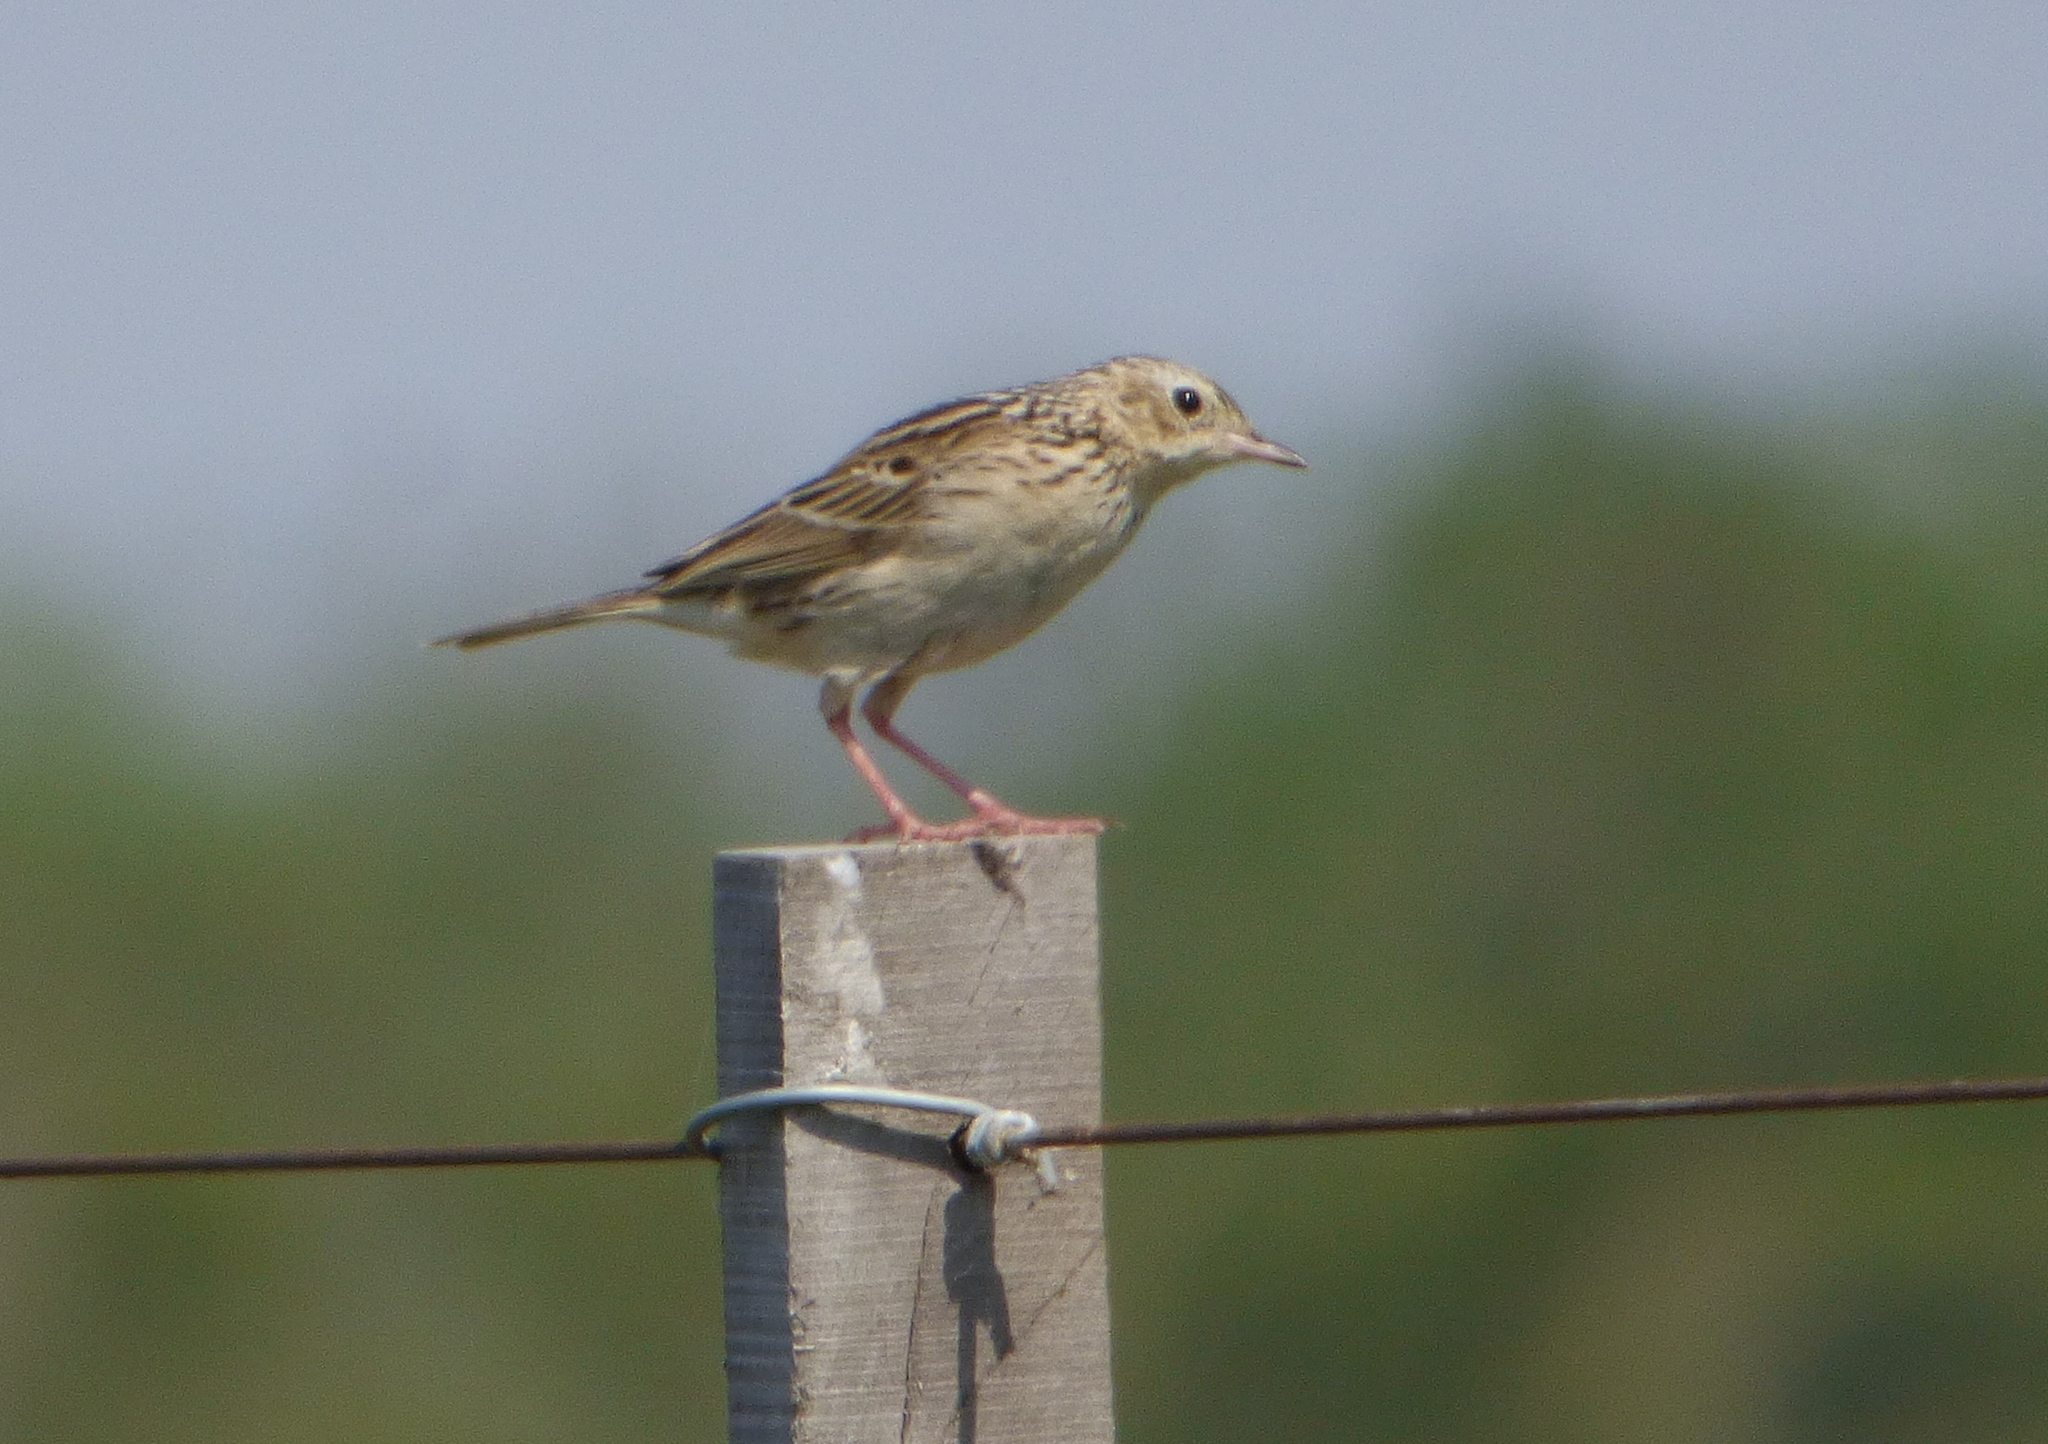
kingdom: Animalia
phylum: Chordata
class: Aves
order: Passeriformes
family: Motacillidae
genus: Anthus
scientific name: Anthus hellmayri
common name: Hellmayr's pipit
